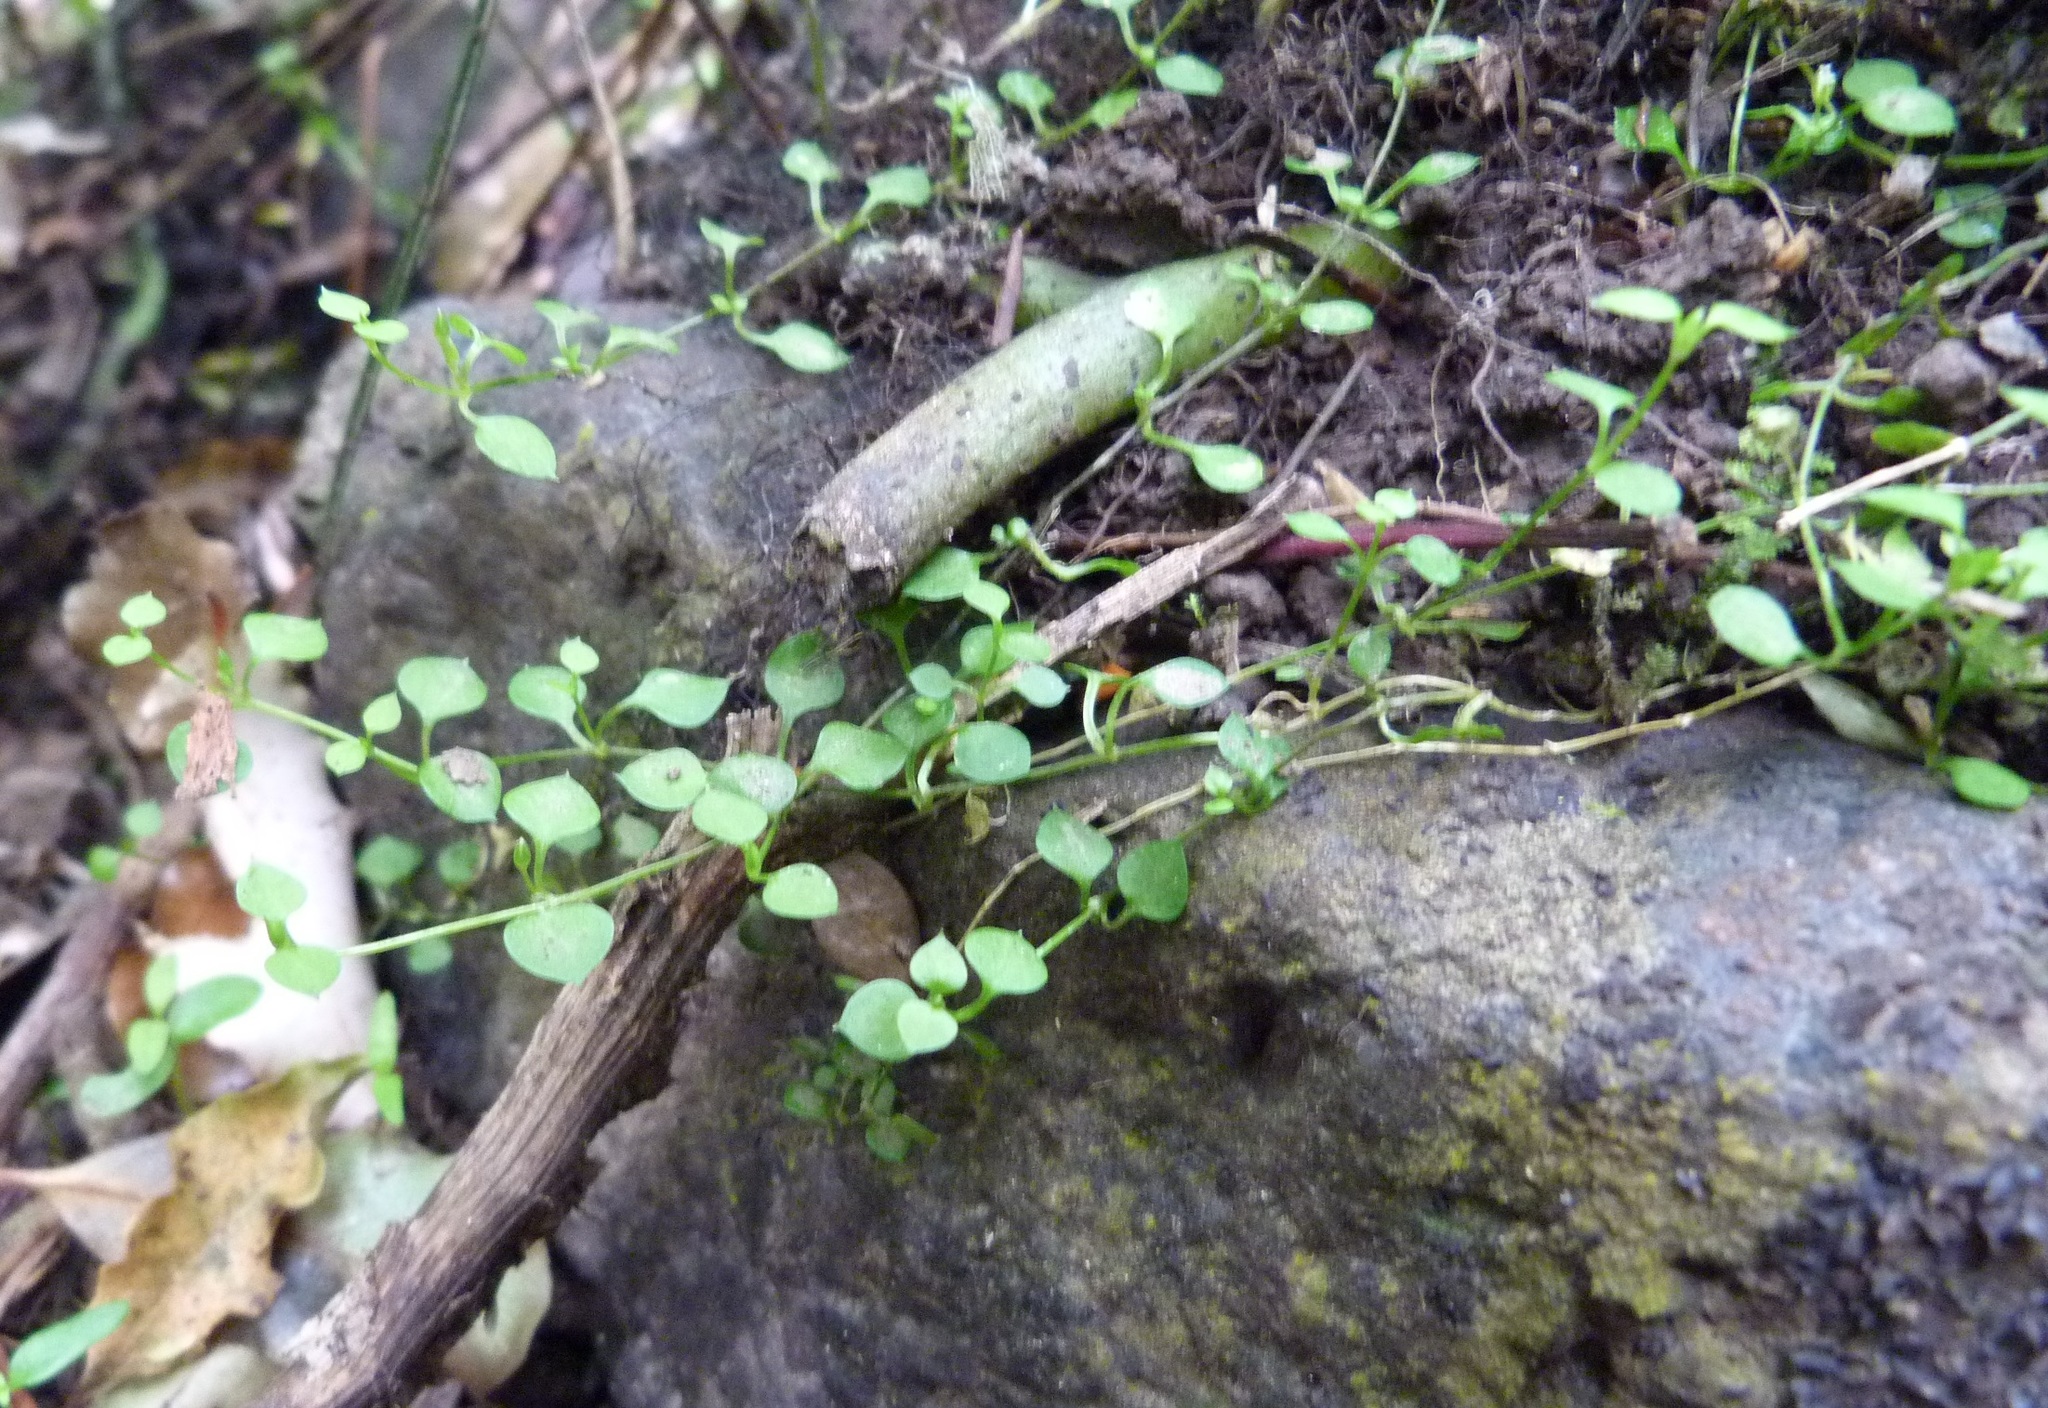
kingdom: Plantae
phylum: Tracheophyta
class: Magnoliopsida
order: Caryophyllales
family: Caryophyllaceae
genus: Stellaria
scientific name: Stellaria parviflora
